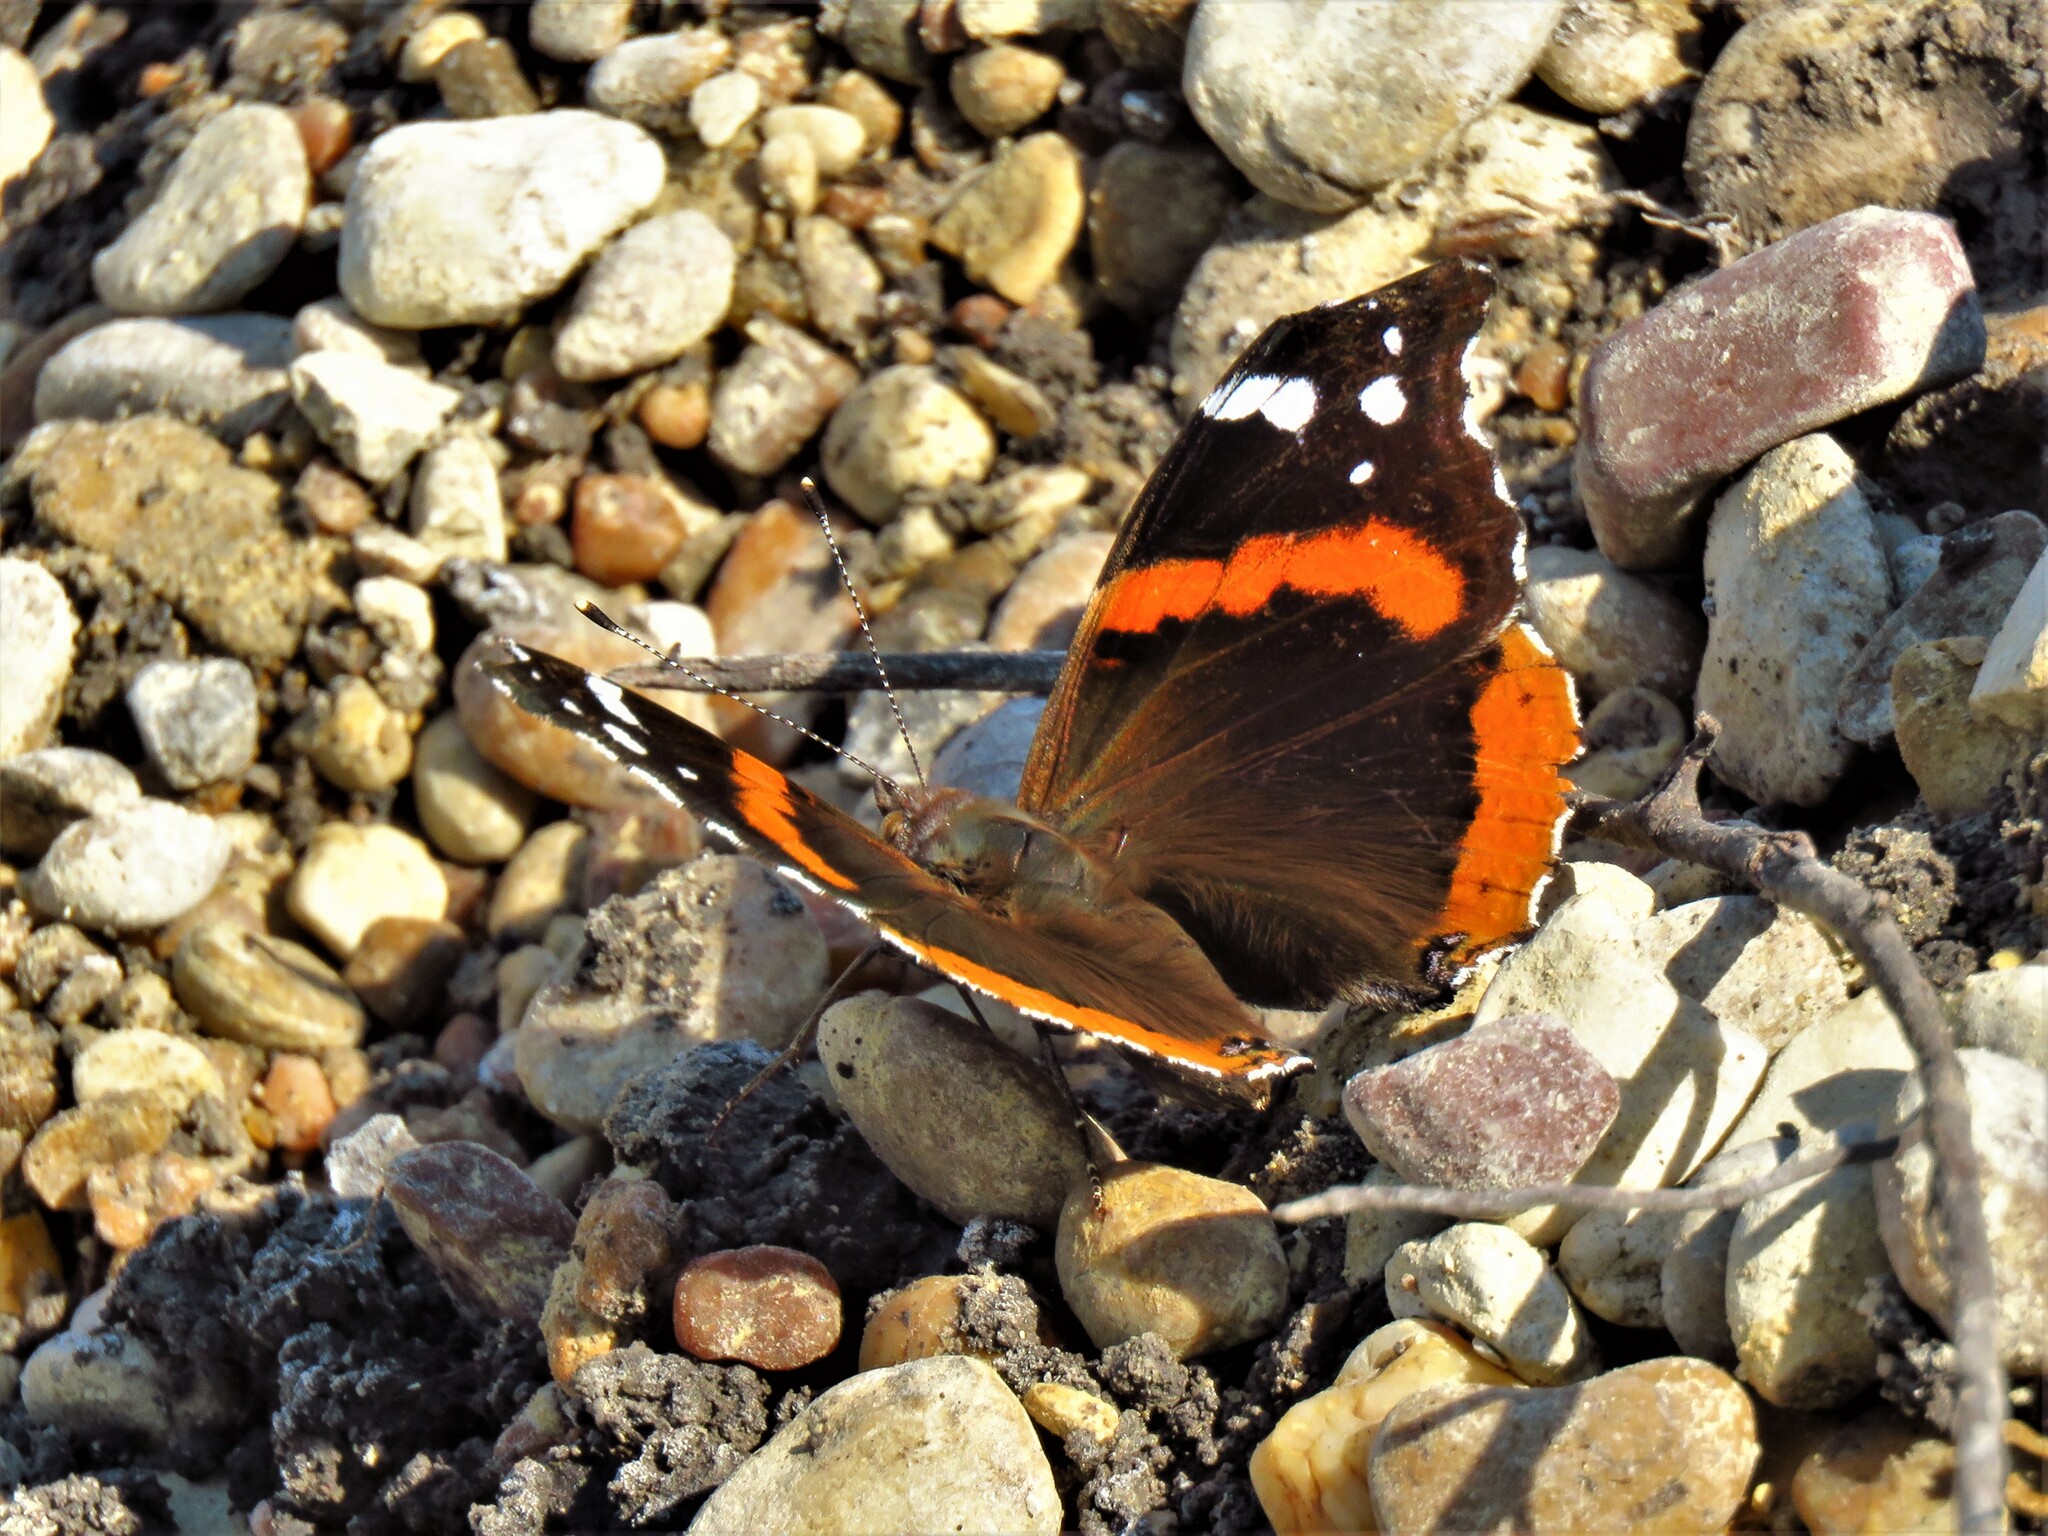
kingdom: Animalia
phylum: Arthropoda
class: Insecta
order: Lepidoptera
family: Nymphalidae
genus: Vanessa
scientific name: Vanessa atalanta
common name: Red admiral
